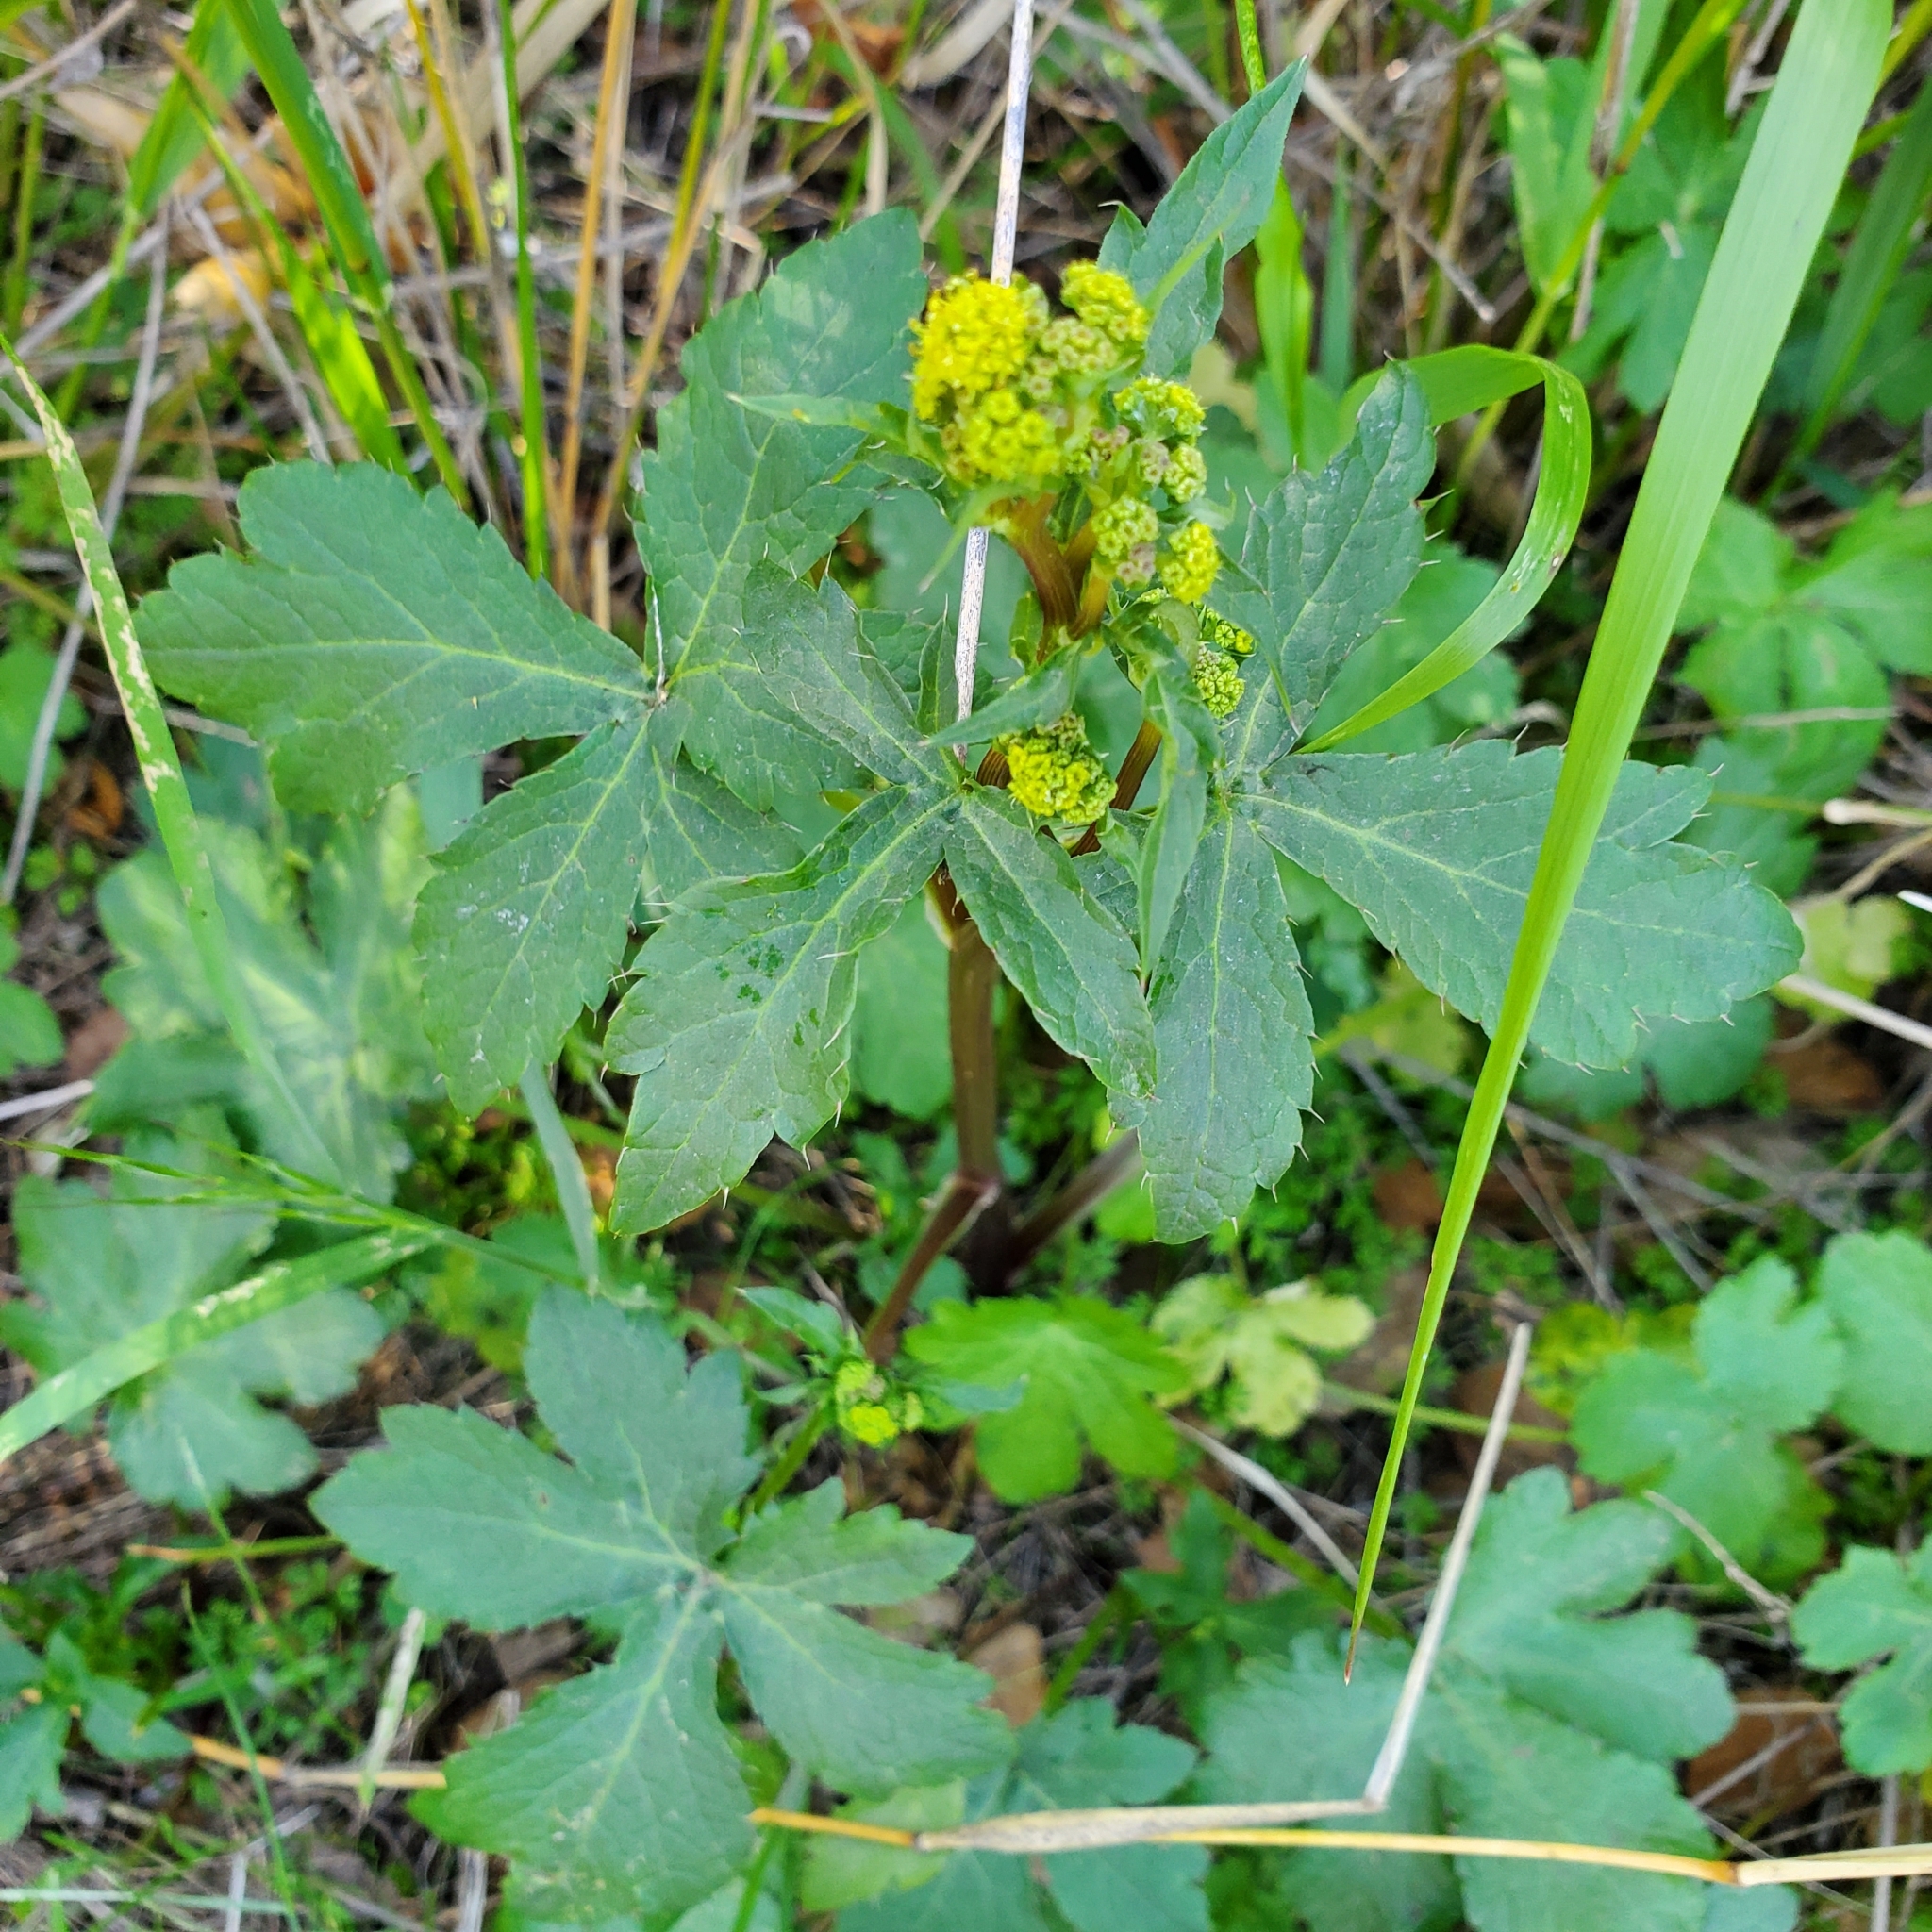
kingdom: Plantae
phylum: Tracheophyta
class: Magnoliopsida
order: Apiales
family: Apiaceae
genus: Sanicula
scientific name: Sanicula crassicaulis
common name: Western snakeroot
